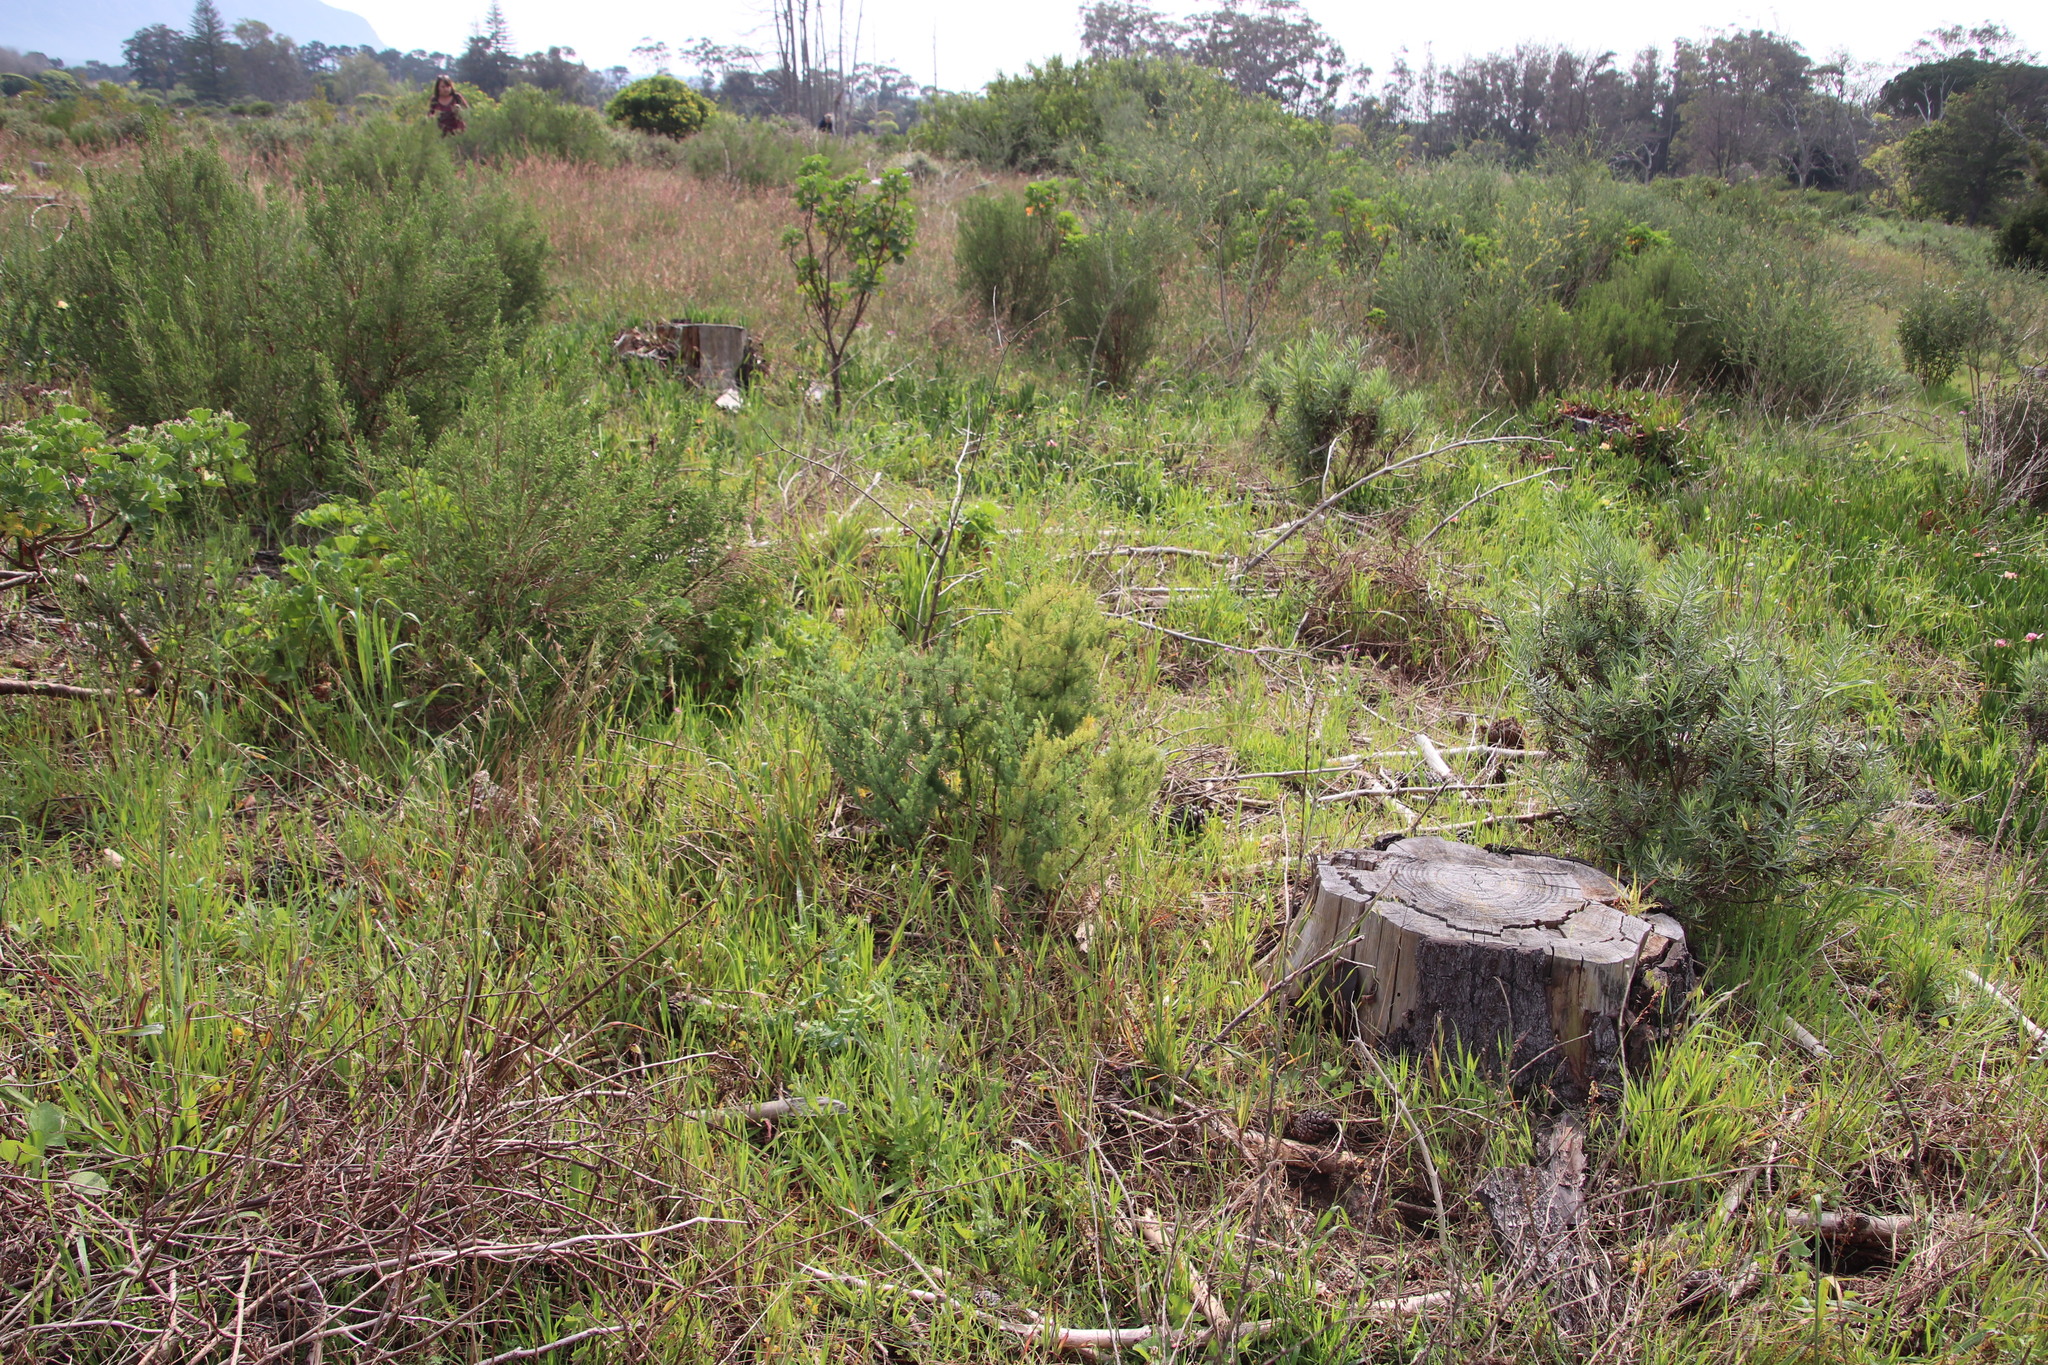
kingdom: Plantae
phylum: Tracheophyta
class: Liliopsida
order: Asparagales
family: Asparagaceae
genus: Asparagus
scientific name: Asparagus rubicundus
